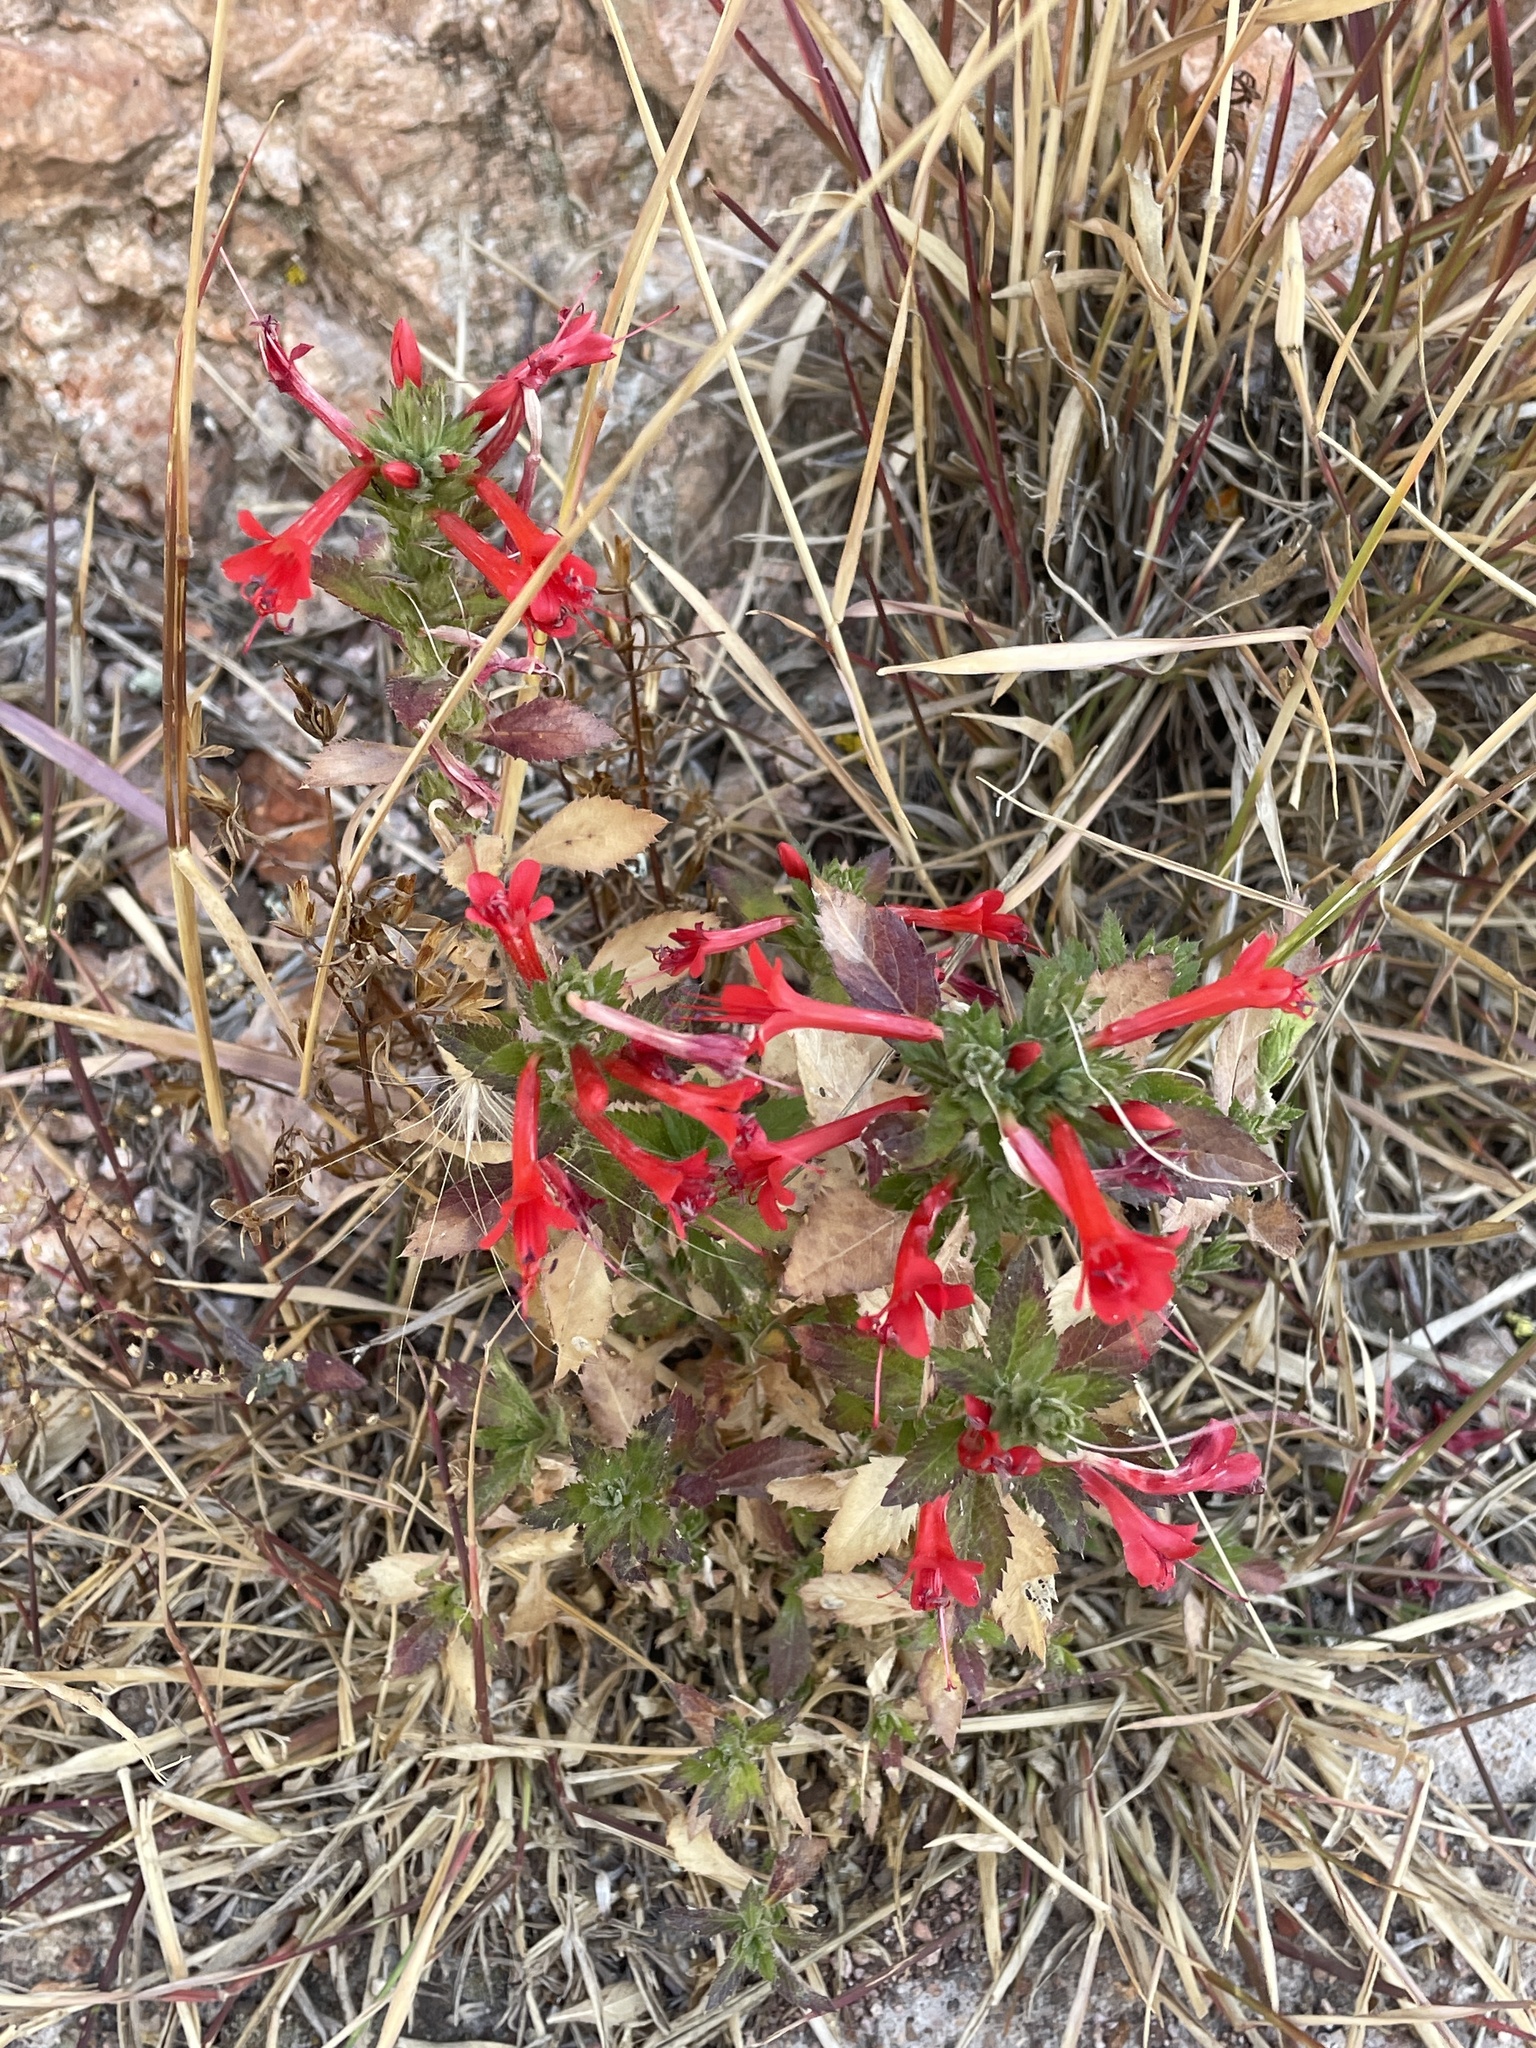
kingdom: Plantae
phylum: Tracheophyta
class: Magnoliopsida
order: Ericales
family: Polemoniaceae
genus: Loeselia
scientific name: Loeselia mexicana
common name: Mexican false calico
